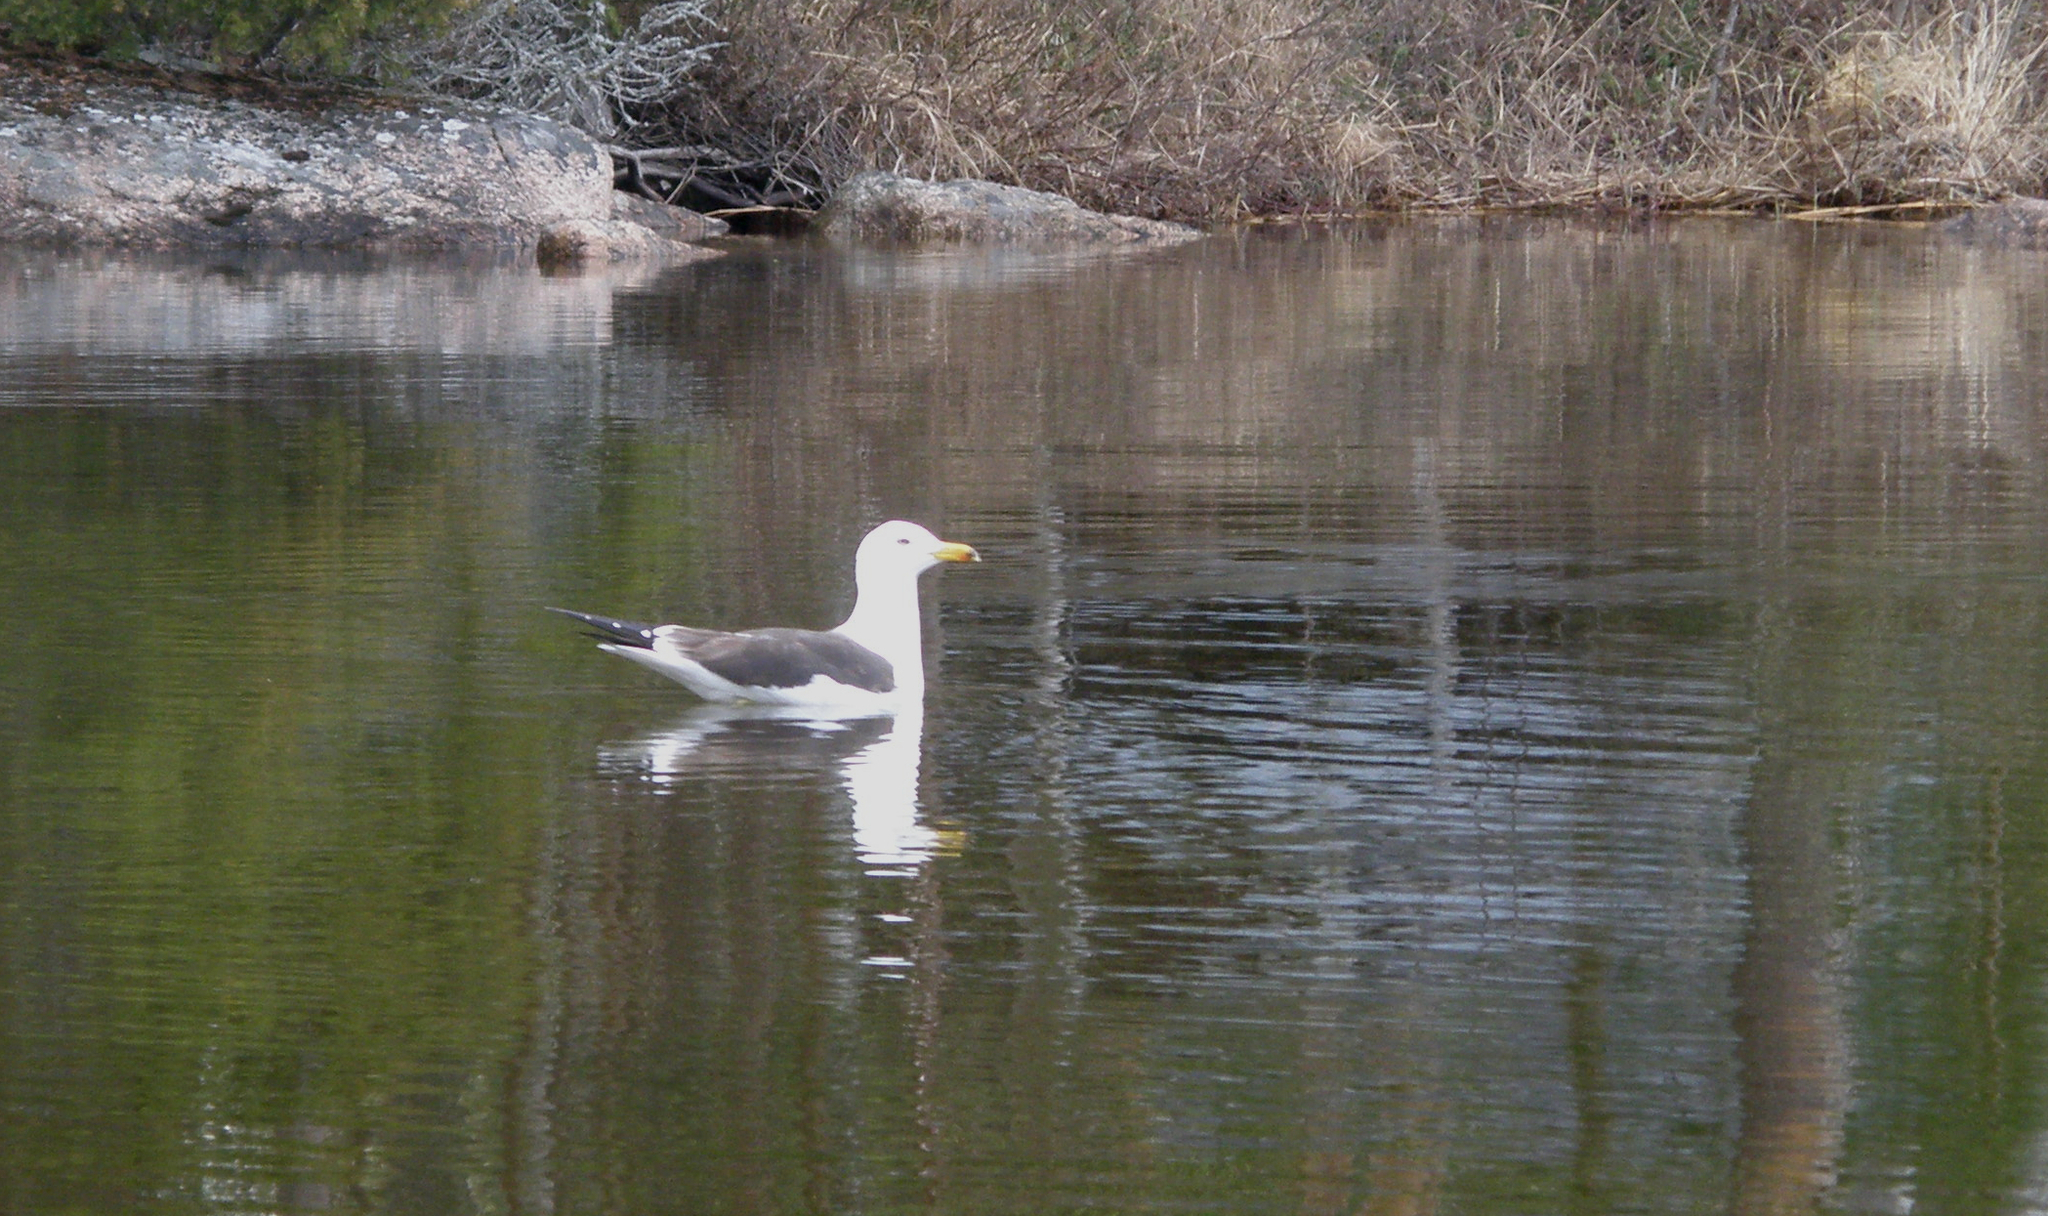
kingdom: Animalia
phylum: Chordata
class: Aves
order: Charadriiformes
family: Laridae
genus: Larus
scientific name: Larus fuscus
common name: Lesser black-backed gull
